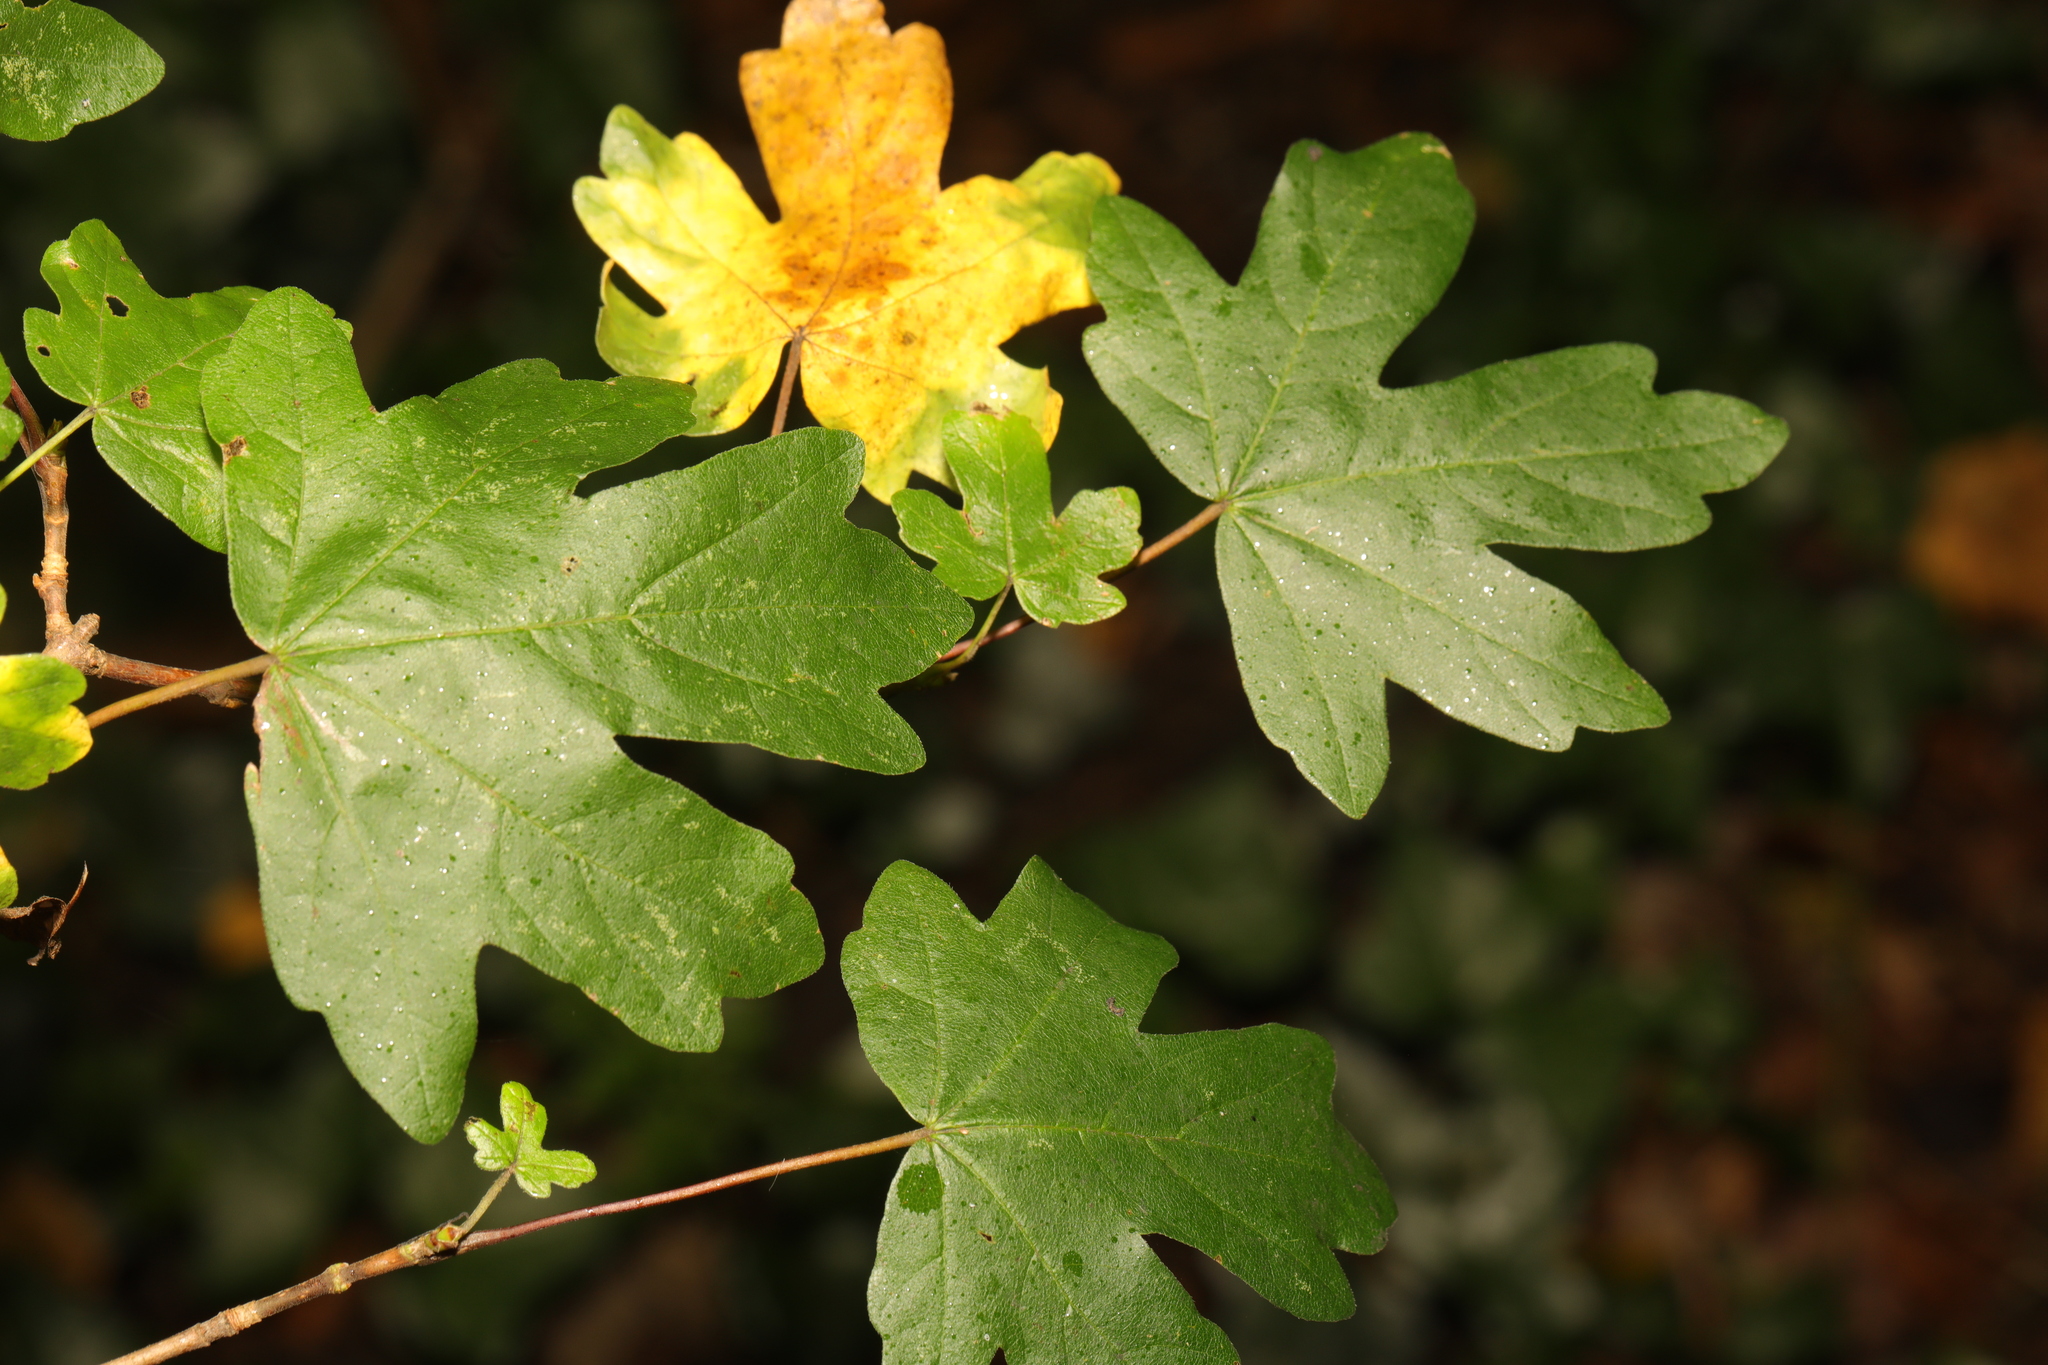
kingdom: Plantae
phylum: Tracheophyta
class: Magnoliopsida
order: Sapindales
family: Sapindaceae
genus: Acer
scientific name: Acer campestre
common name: Field maple
